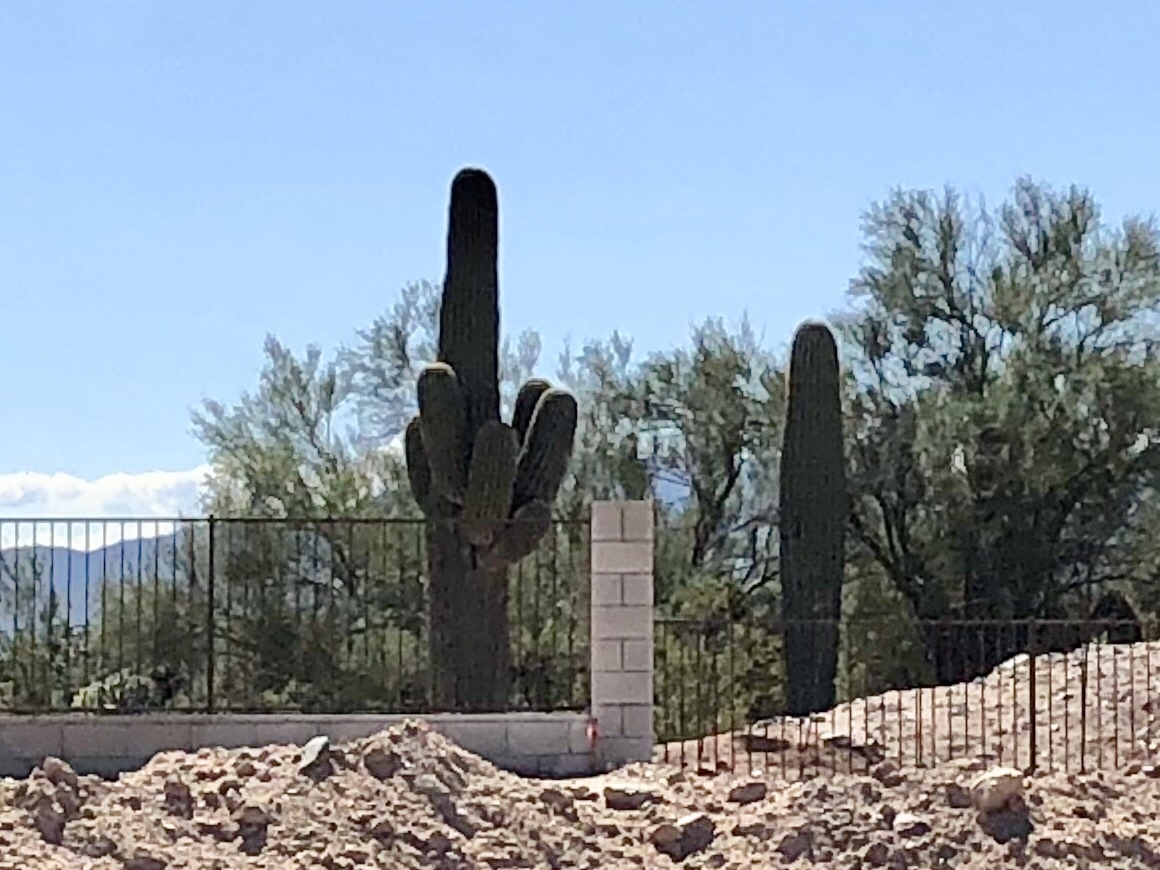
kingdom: Plantae
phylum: Tracheophyta
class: Magnoliopsida
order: Caryophyllales
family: Cactaceae
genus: Carnegiea
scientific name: Carnegiea gigantea
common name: Saguaro
